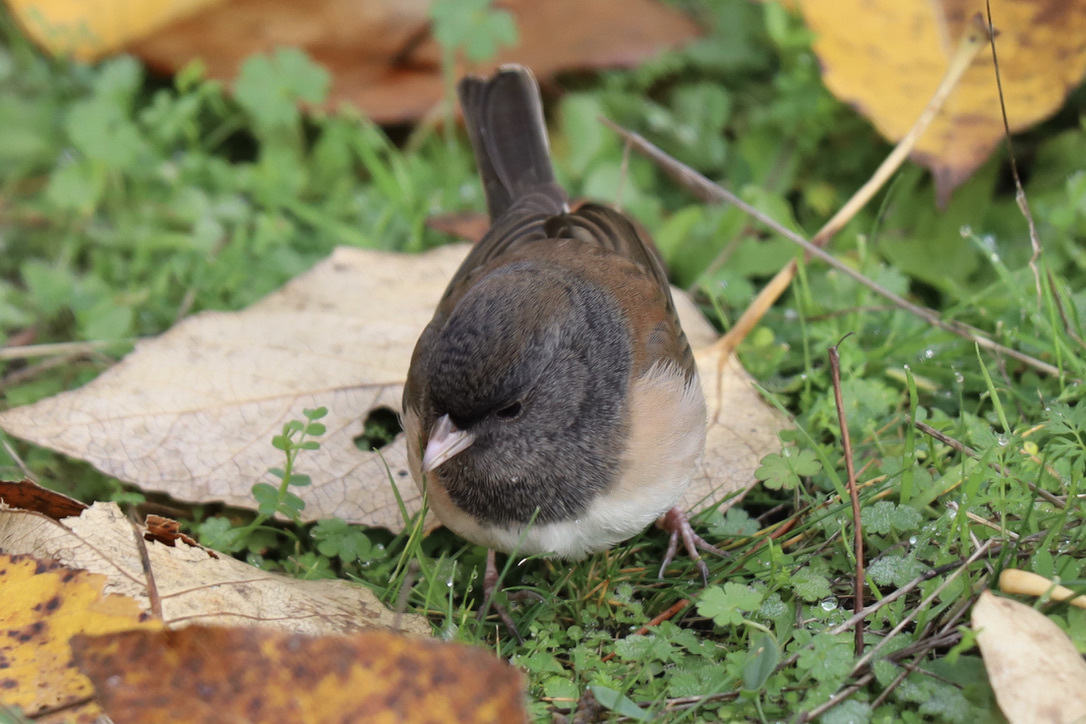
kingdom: Animalia
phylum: Chordata
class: Aves
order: Passeriformes
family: Passerellidae
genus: Junco
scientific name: Junco hyemalis
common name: Dark-eyed junco
